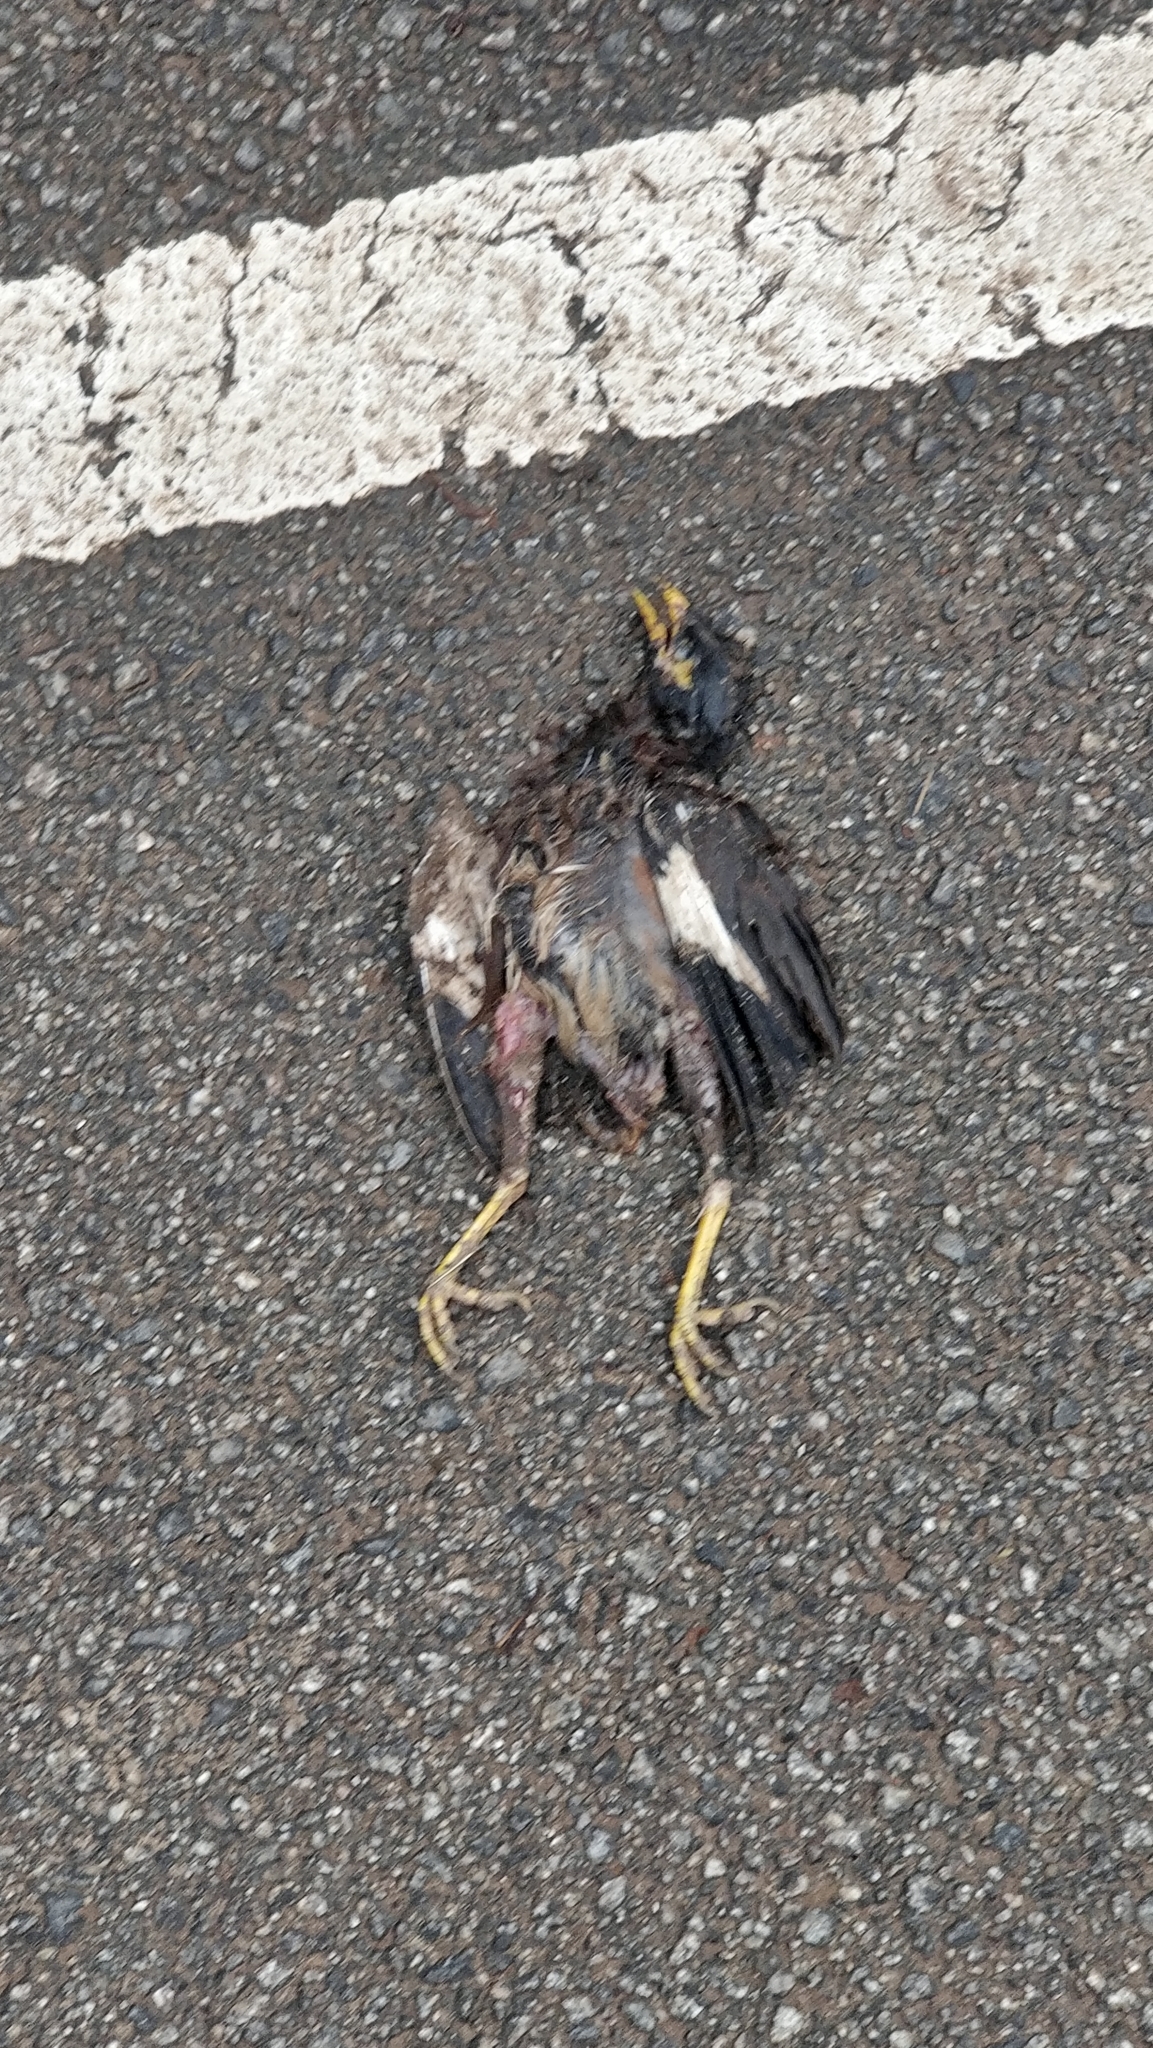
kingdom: Animalia
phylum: Chordata
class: Aves
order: Passeriformes
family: Sturnidae
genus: Acridotheres
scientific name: Acridotheres tristis
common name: Common myna
